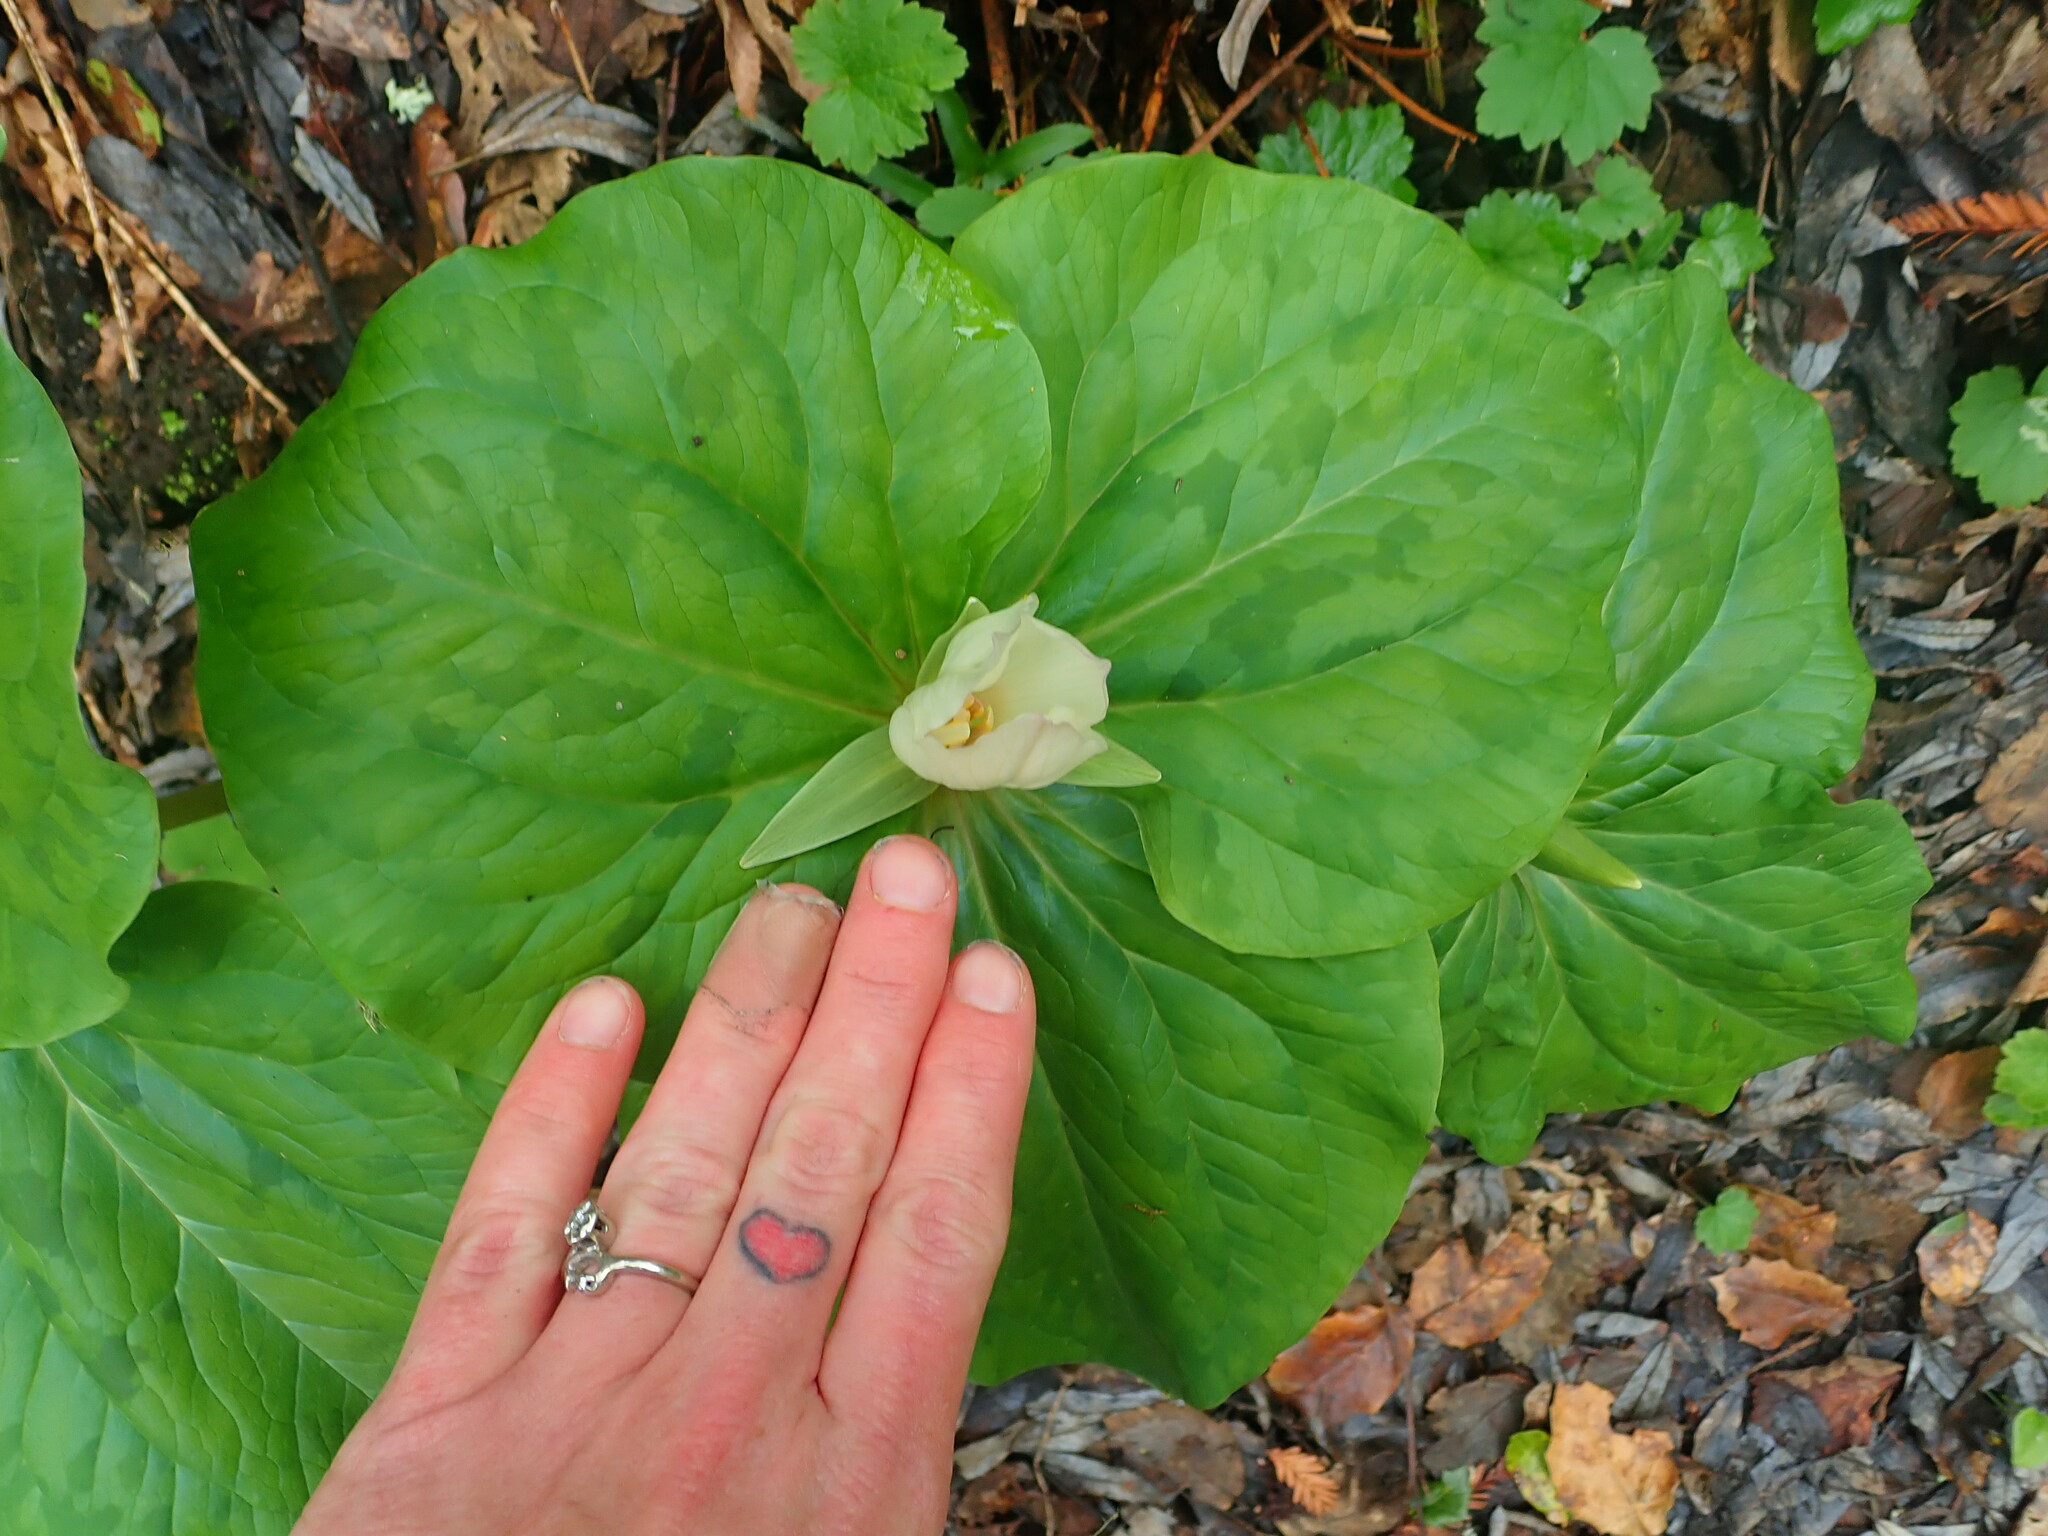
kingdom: Plantae
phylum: Tracheophyta
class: Liliopsida
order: Liliales
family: Melanthiaceae
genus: Trillium
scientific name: Trillium chloropetalum
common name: Giant trillium
